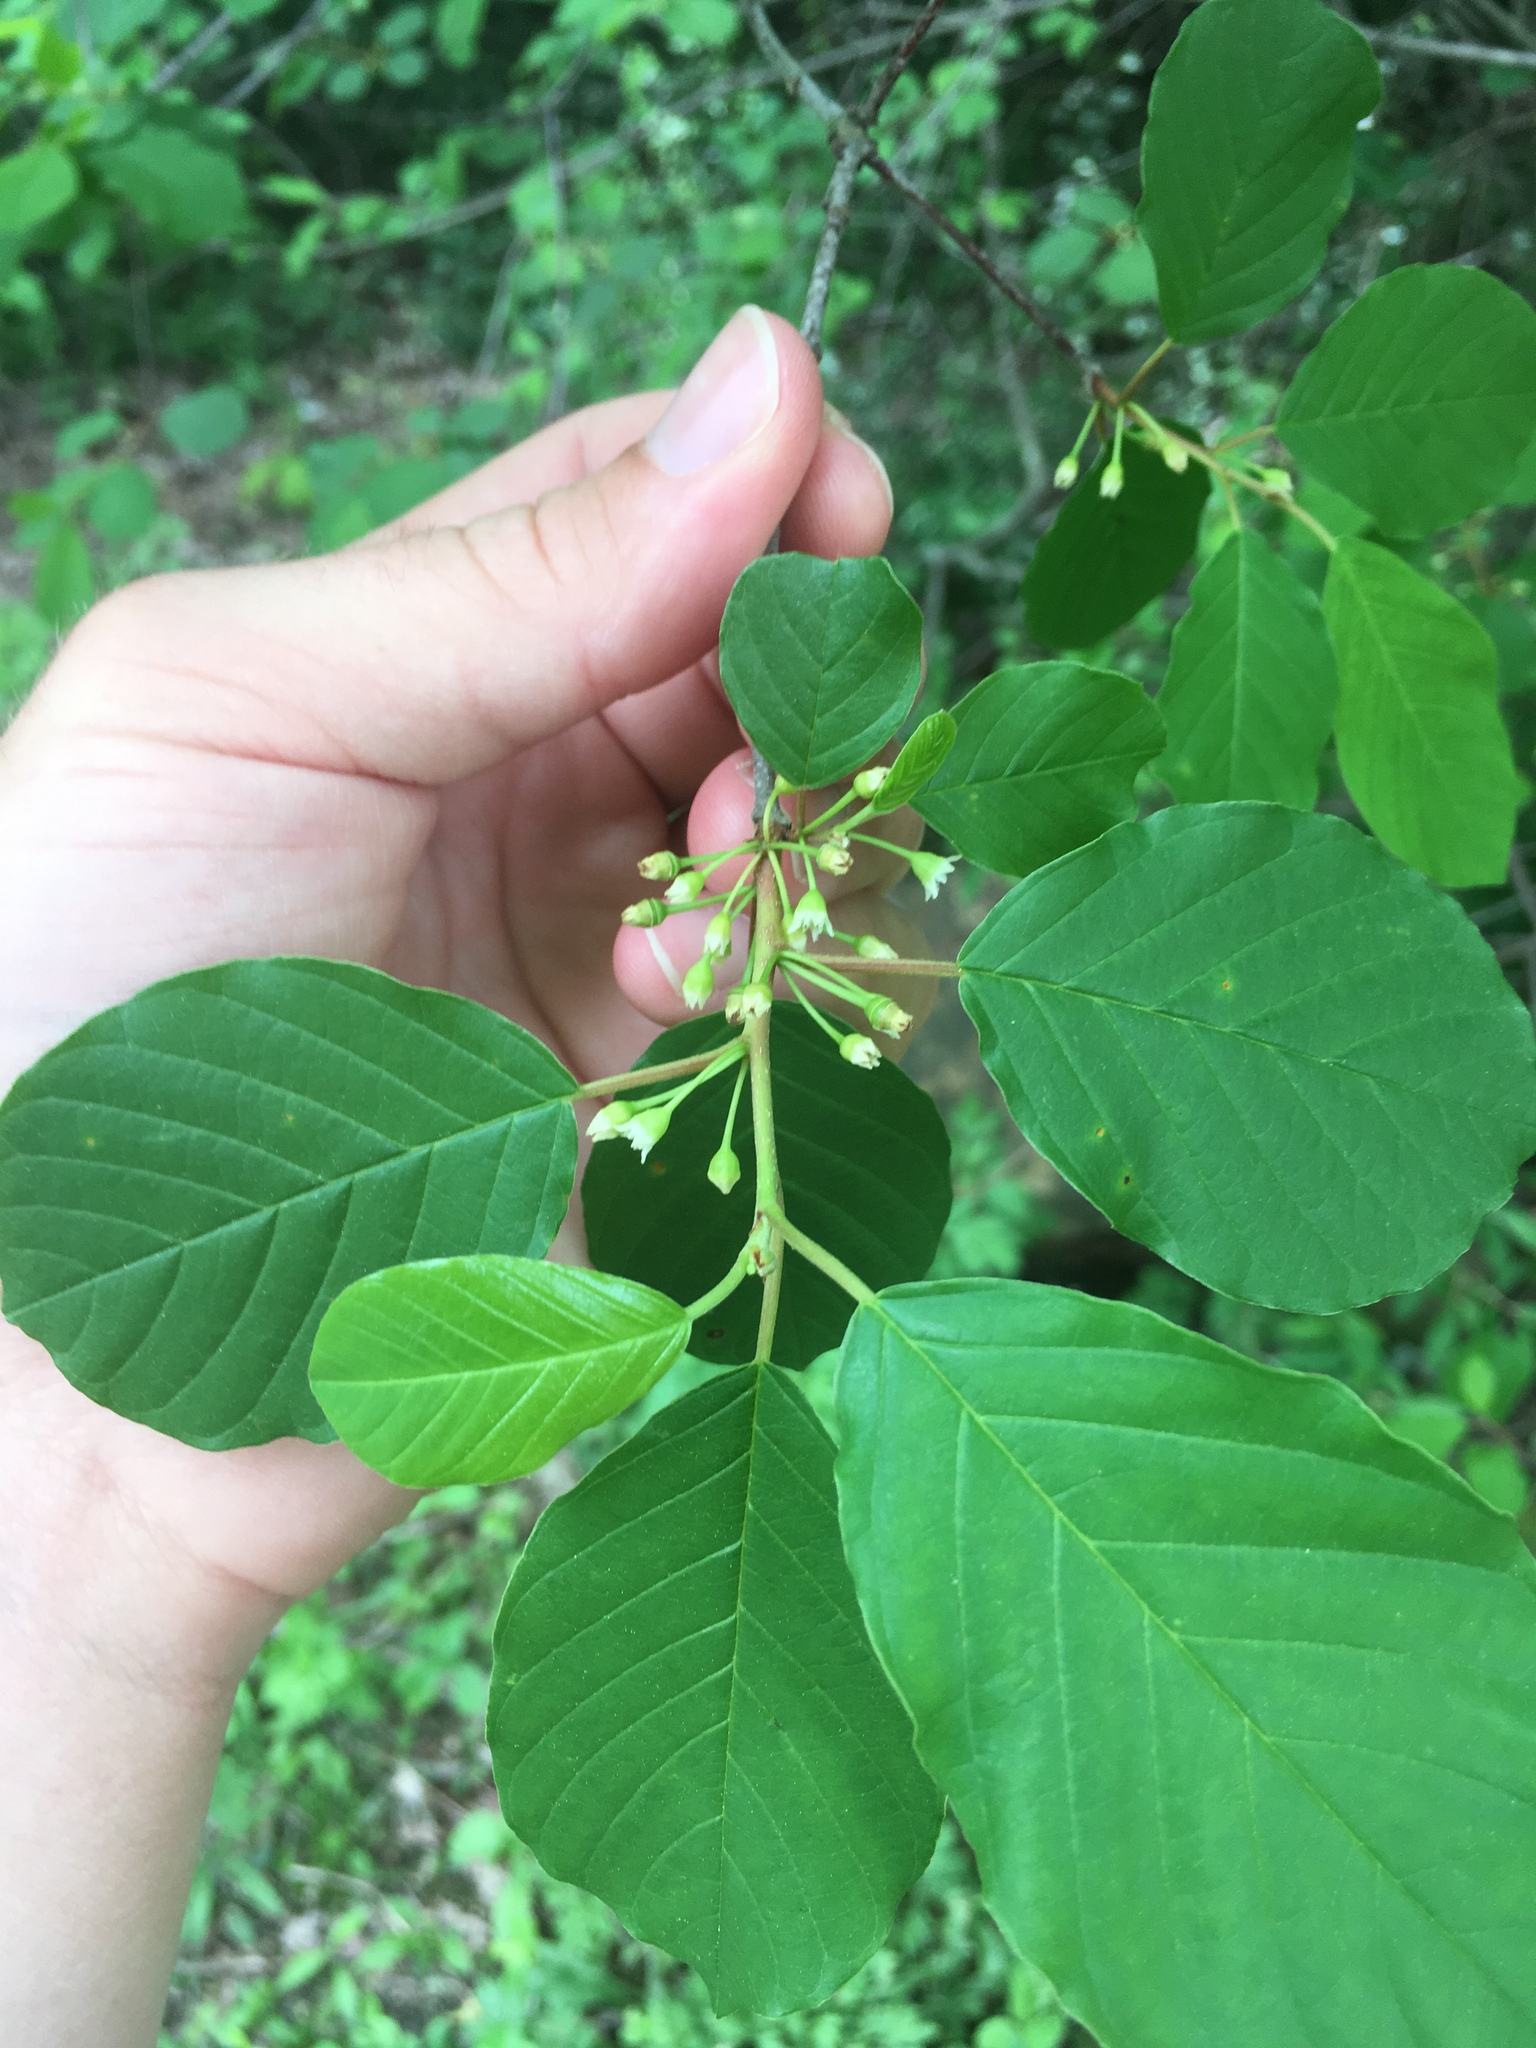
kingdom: Plantae
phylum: Tracheophyta
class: Magnoliopsida
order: Rosales
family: Rhamnaceae
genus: Frangula
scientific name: Frangula alnus
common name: Alder buckthorn
